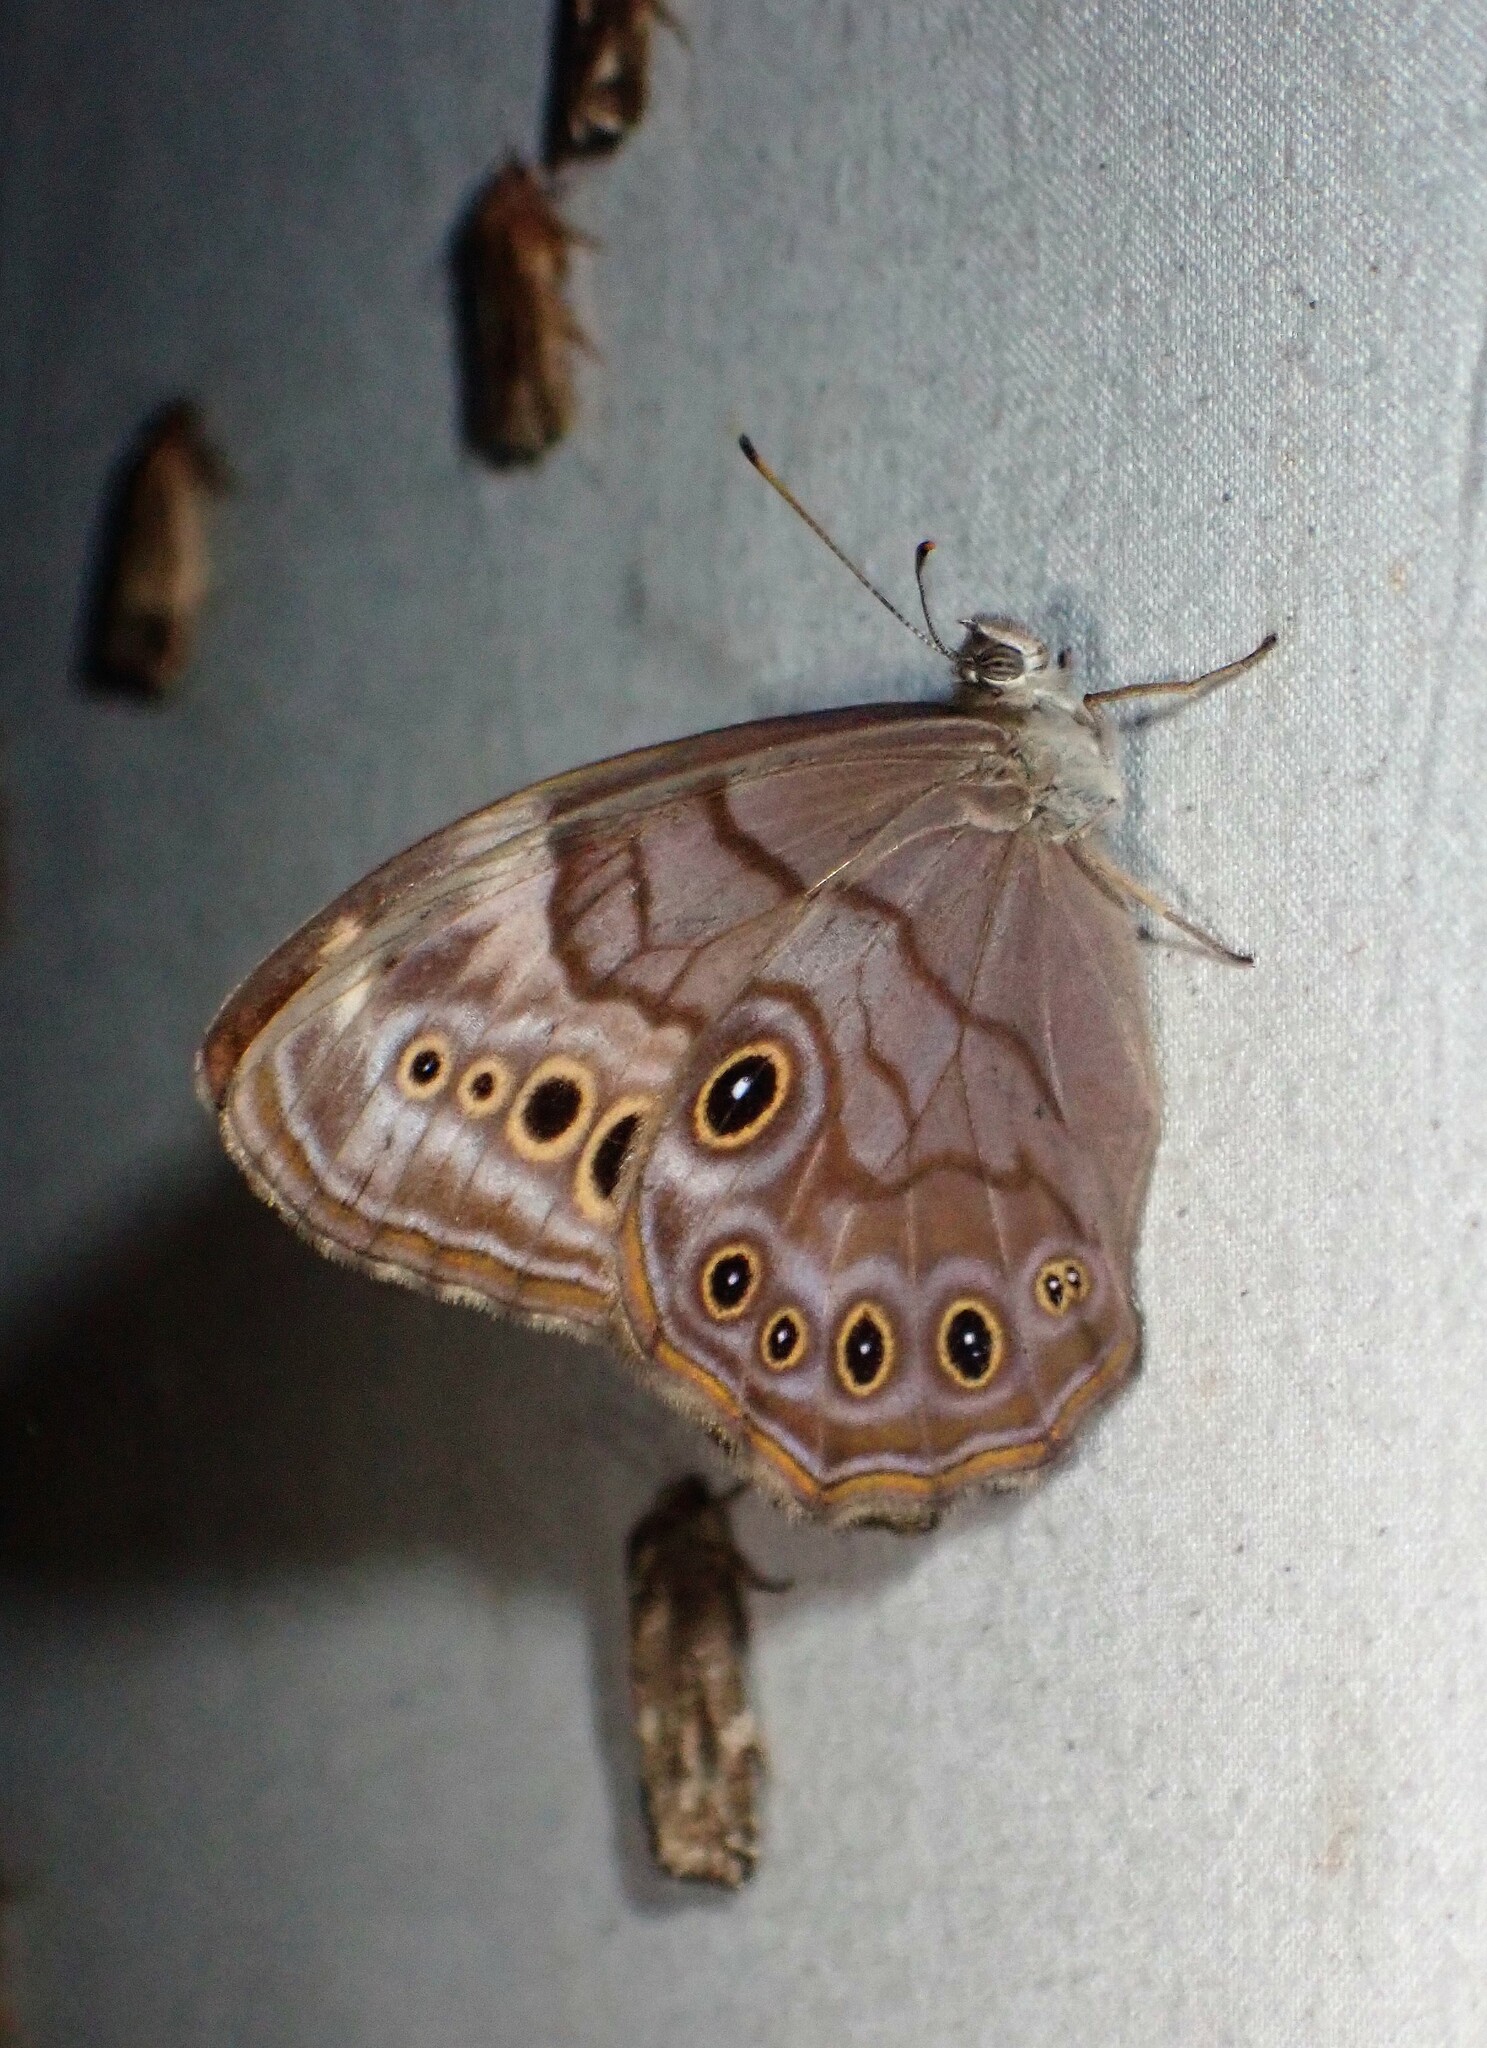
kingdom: Animalia
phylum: Arthropoda
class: Insecta
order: Lepidoptera
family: Nymphalidae
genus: Lethe
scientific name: Lethe anthedon
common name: Northern pearly-eye
